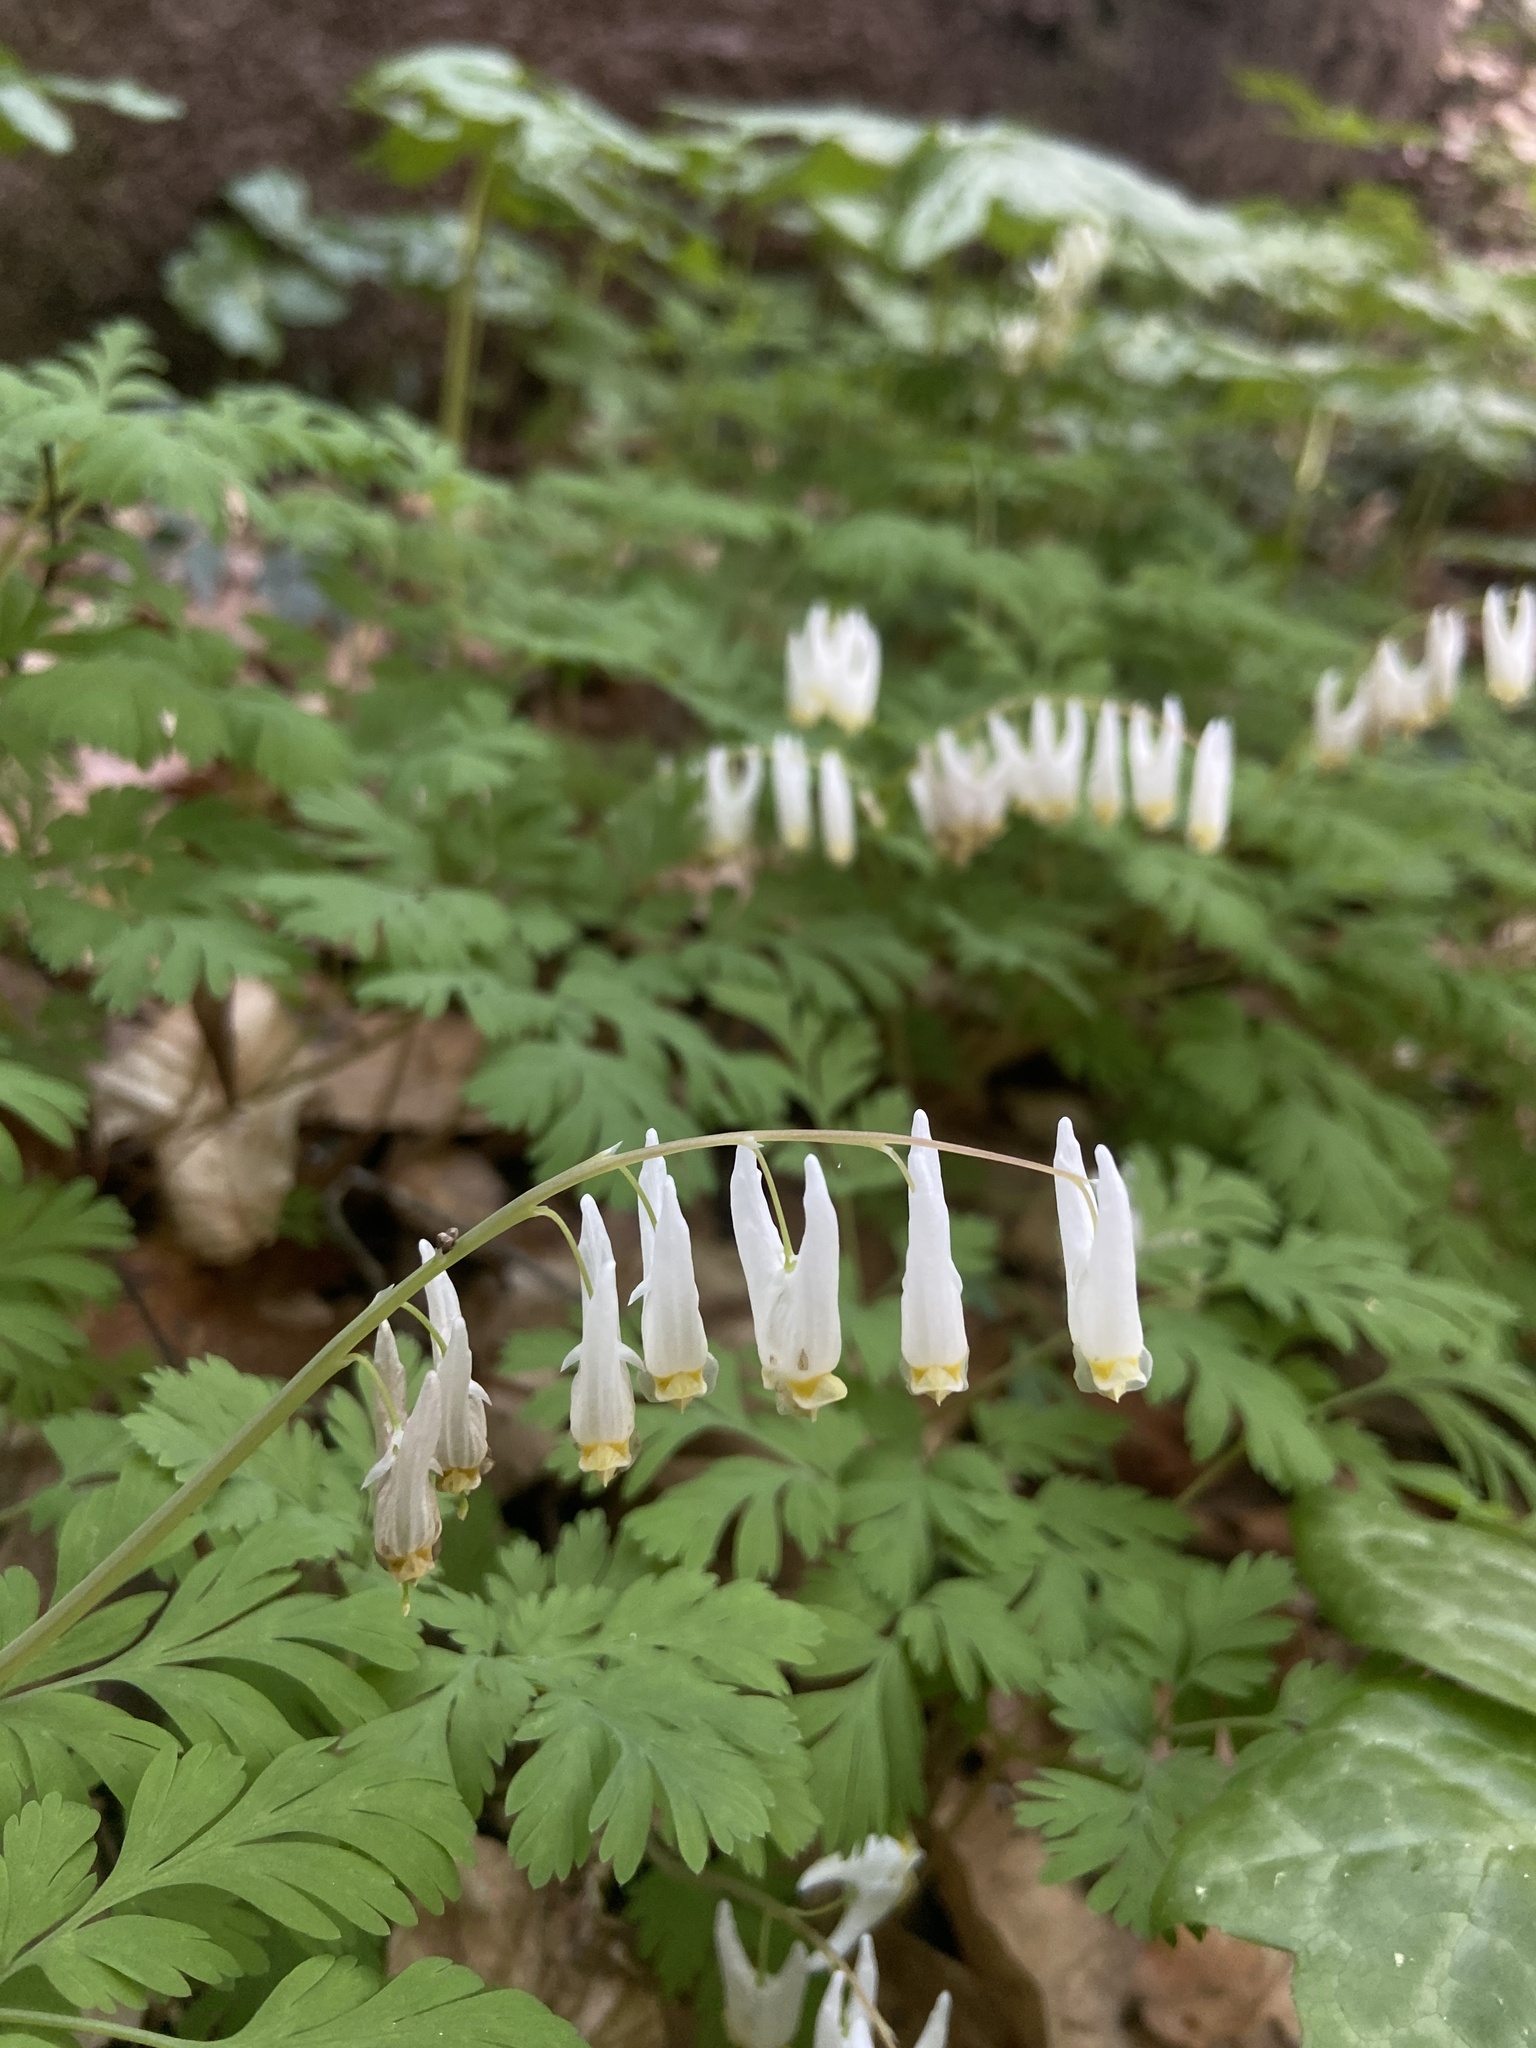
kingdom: Plantae
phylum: Tracheophyta
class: Magnoliopsida
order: Ranunculales
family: Papaveraceae
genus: Dicentra
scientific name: Dicentra cucullaria
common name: Dutchman's breeches
